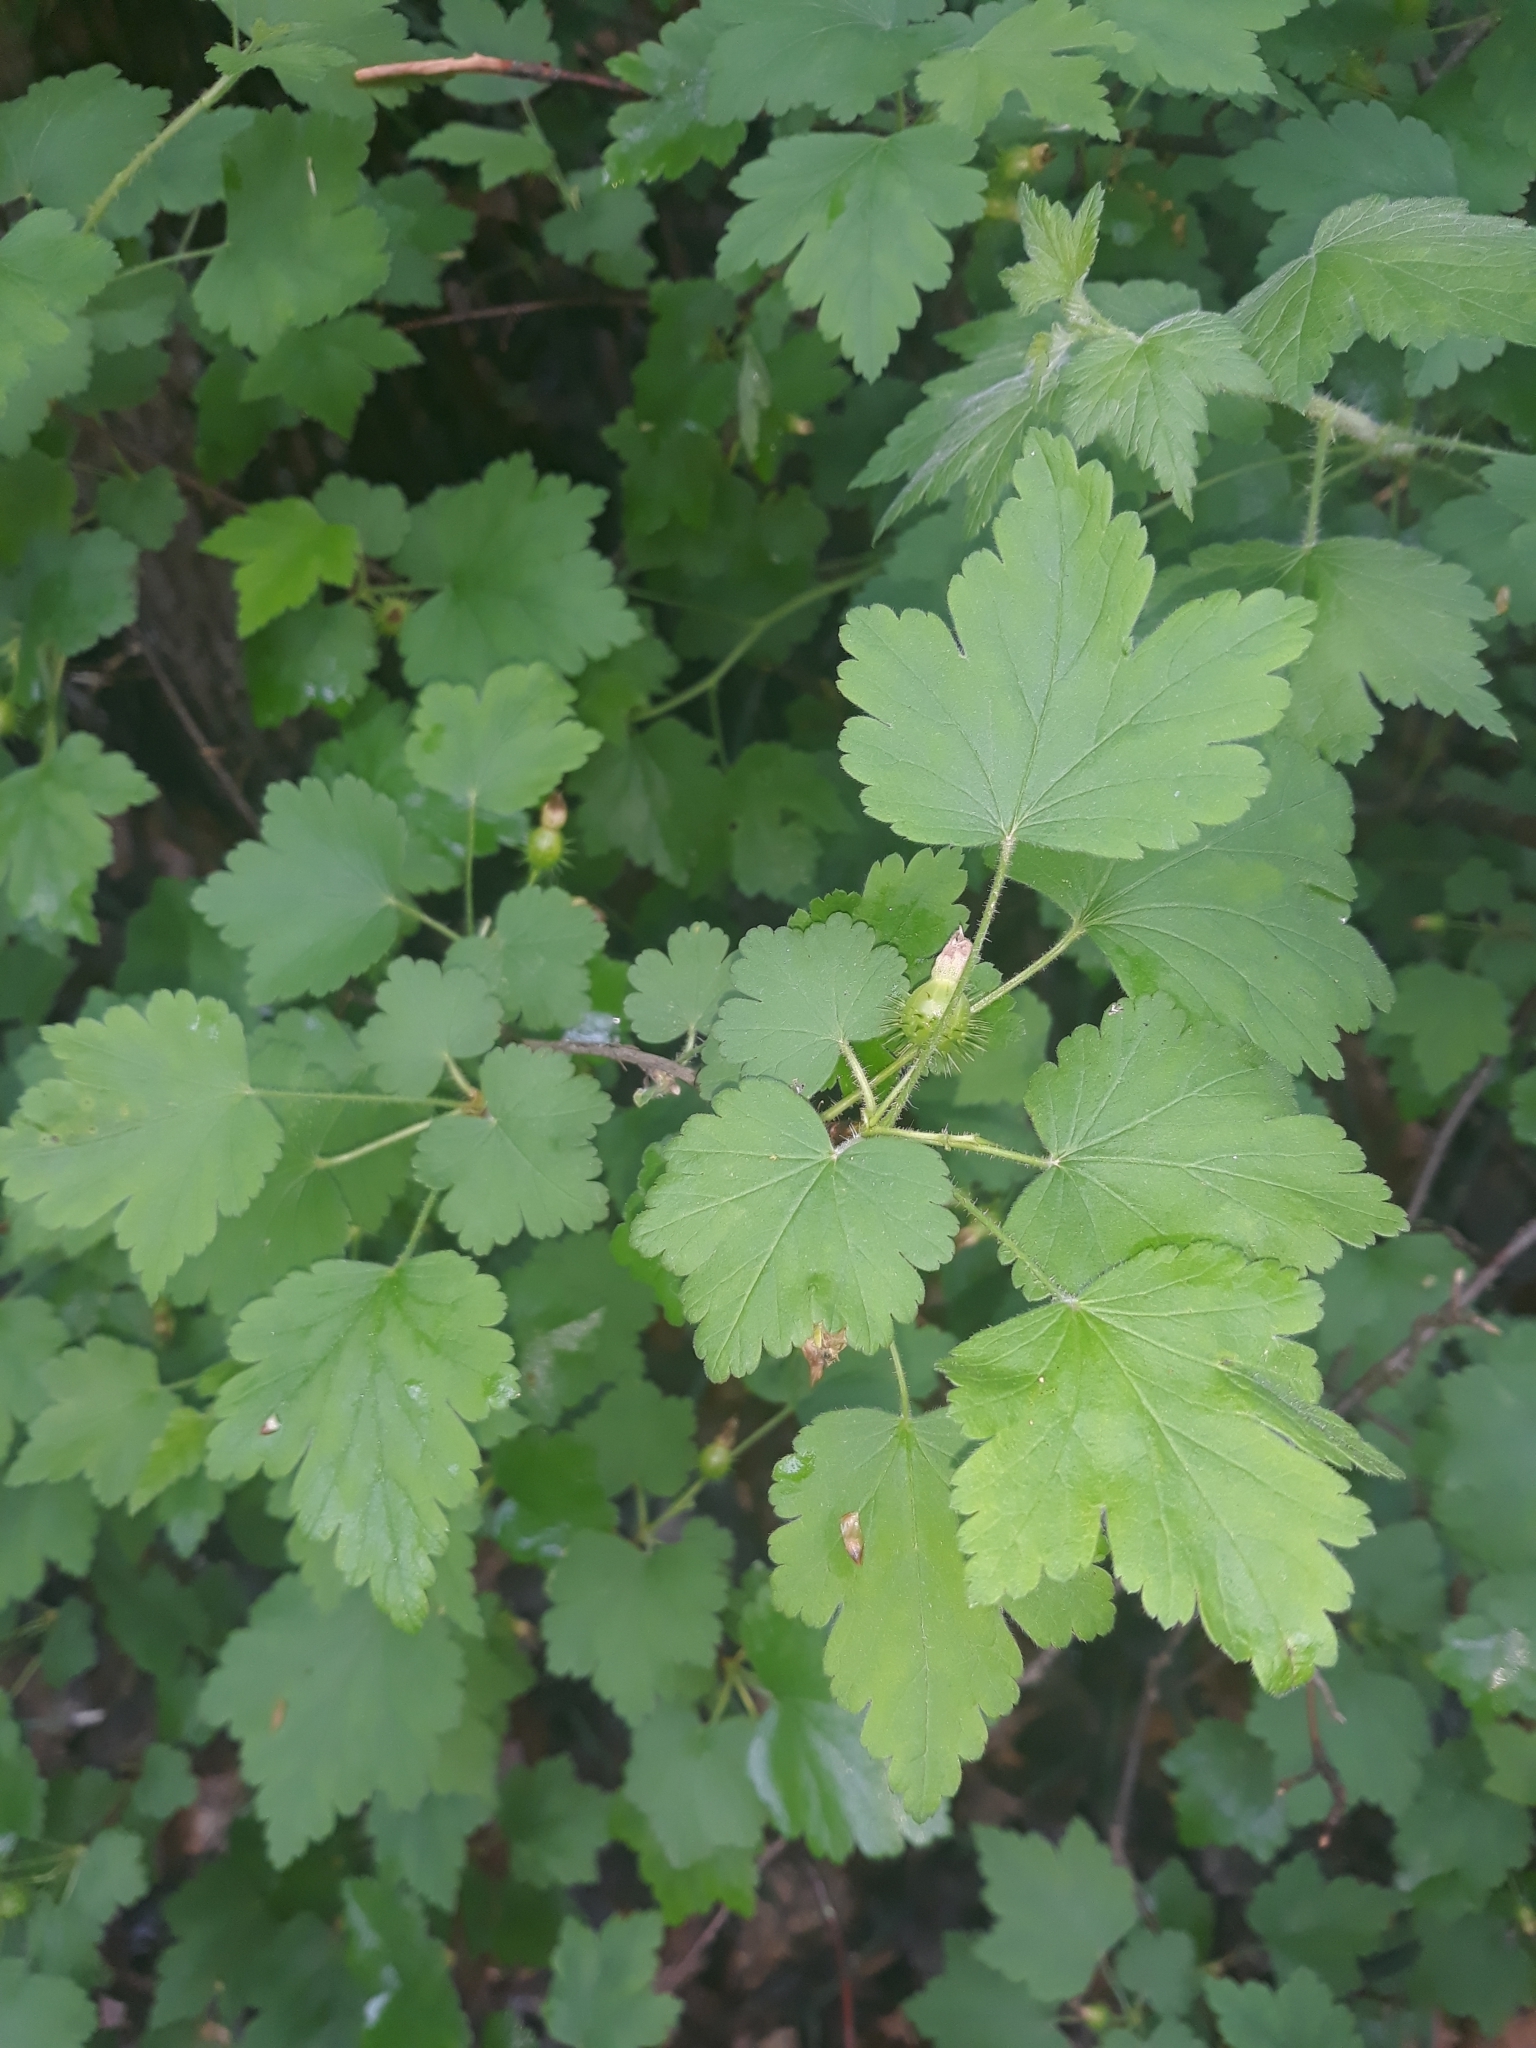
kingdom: Plantae
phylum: Tracheophyta
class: Magnoliopsida
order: Saxifragales
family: Grossulariaceae
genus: Ribes
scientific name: Ribes cynosbati
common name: American gooseberry
